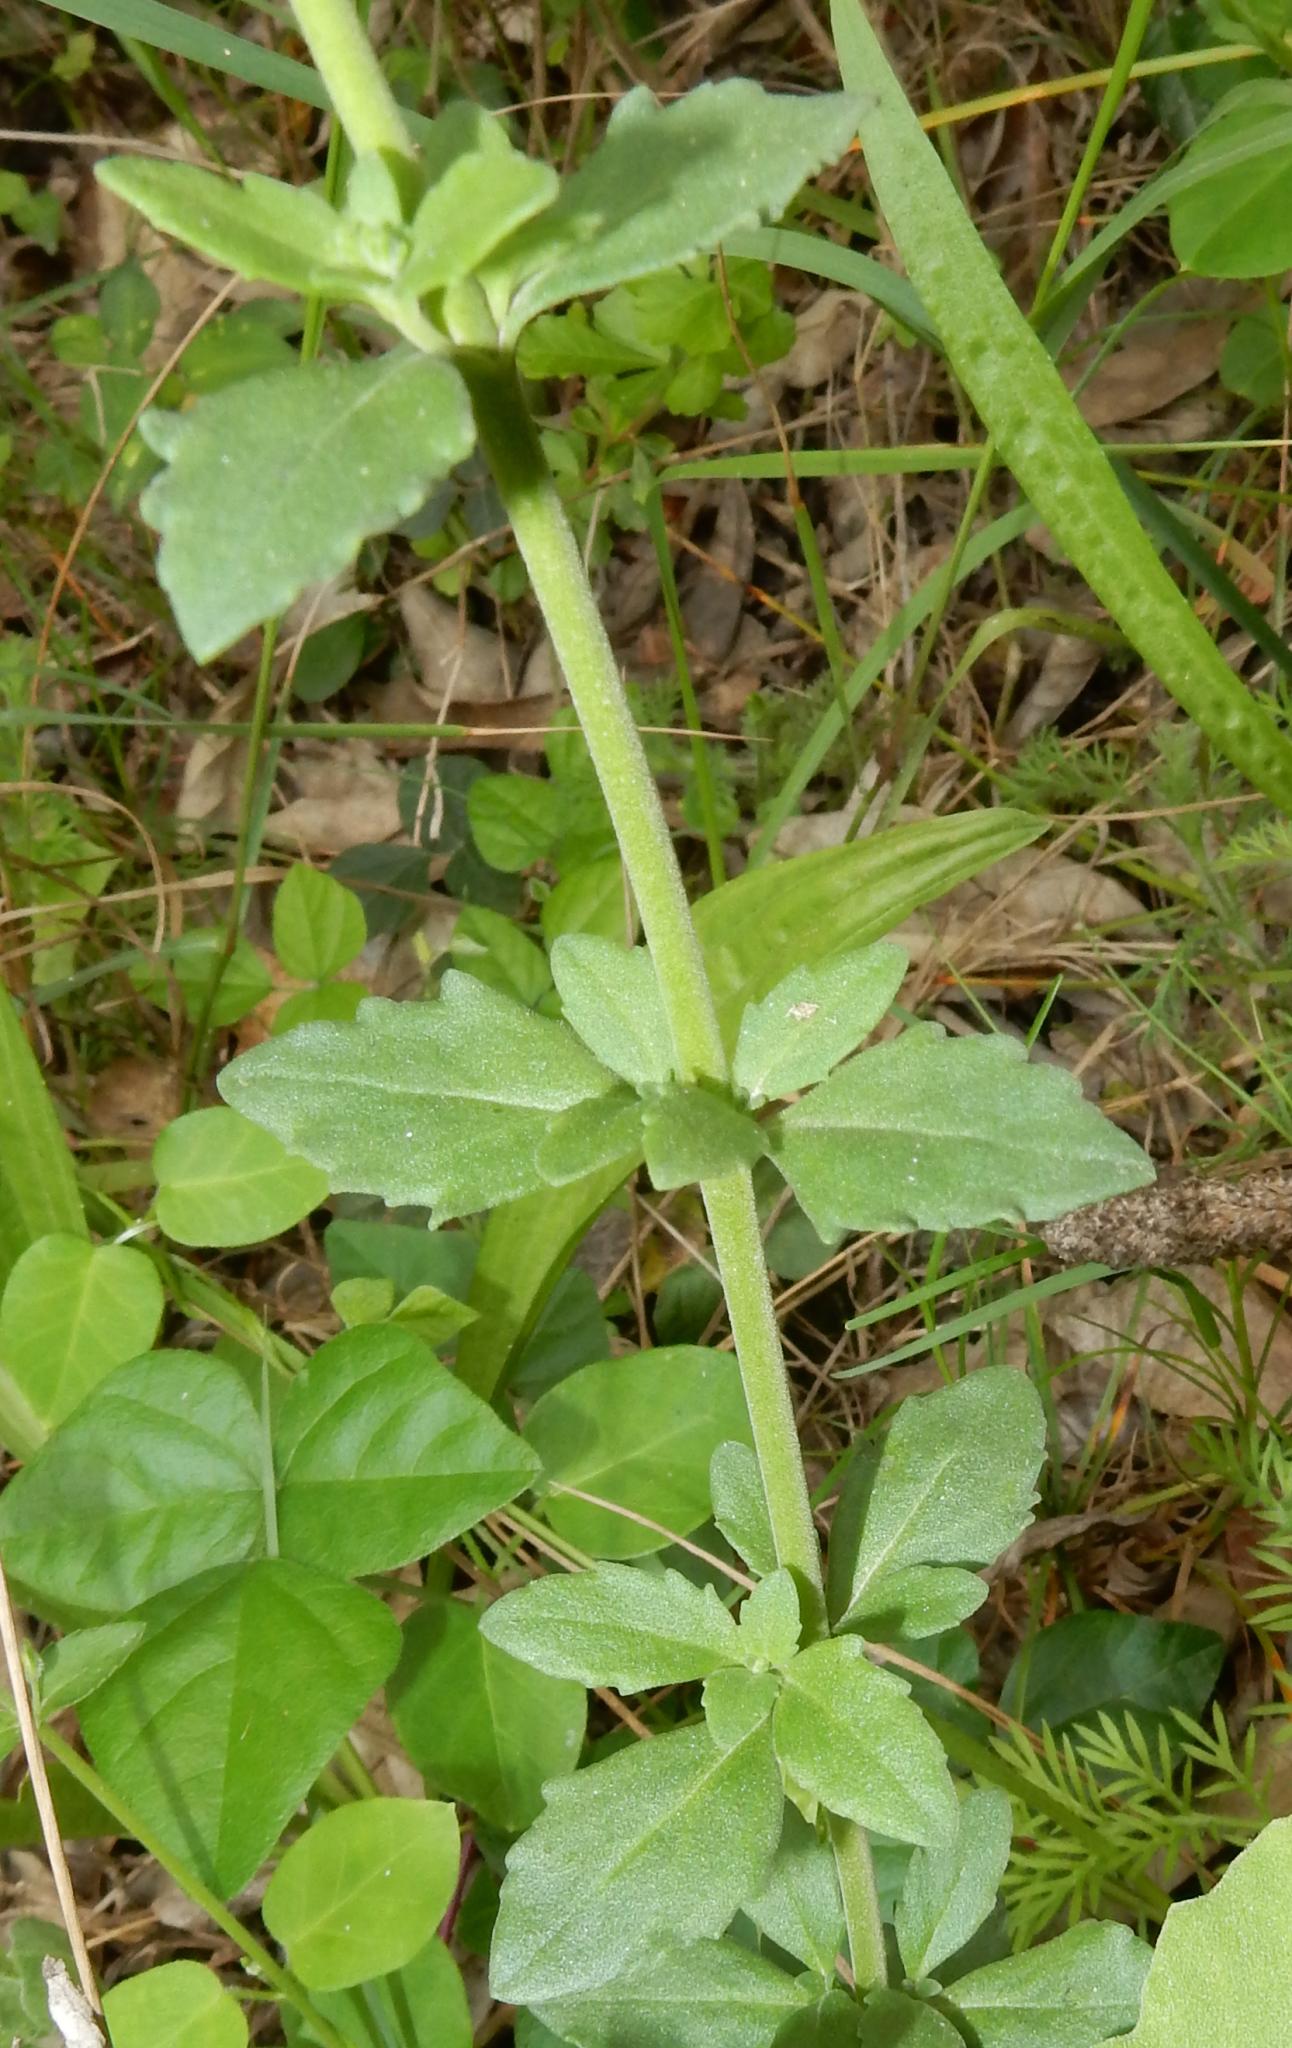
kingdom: Plantae
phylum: Tracheophyta
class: Magnoliopsida
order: Lamiales
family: Scrophulariaceae
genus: Chaenostoma
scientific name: Chaenostoma polyanthum
